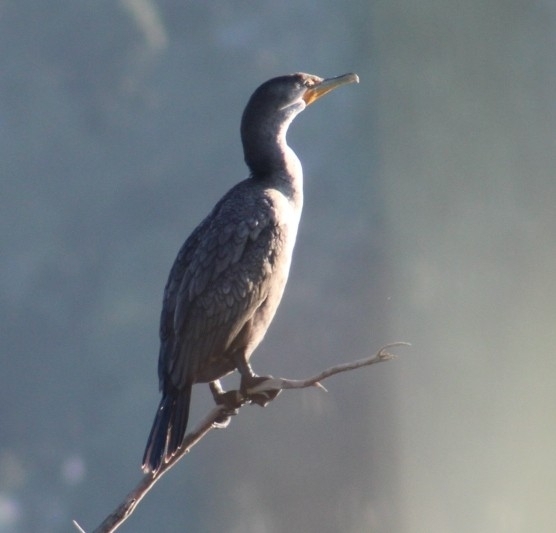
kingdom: Animalia
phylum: Chordata
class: Aves
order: Suliformes
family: Phalacrocoracidae
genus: Phalacrocorax
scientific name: Phalacrocorax auritus
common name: Double-crested cormorant
